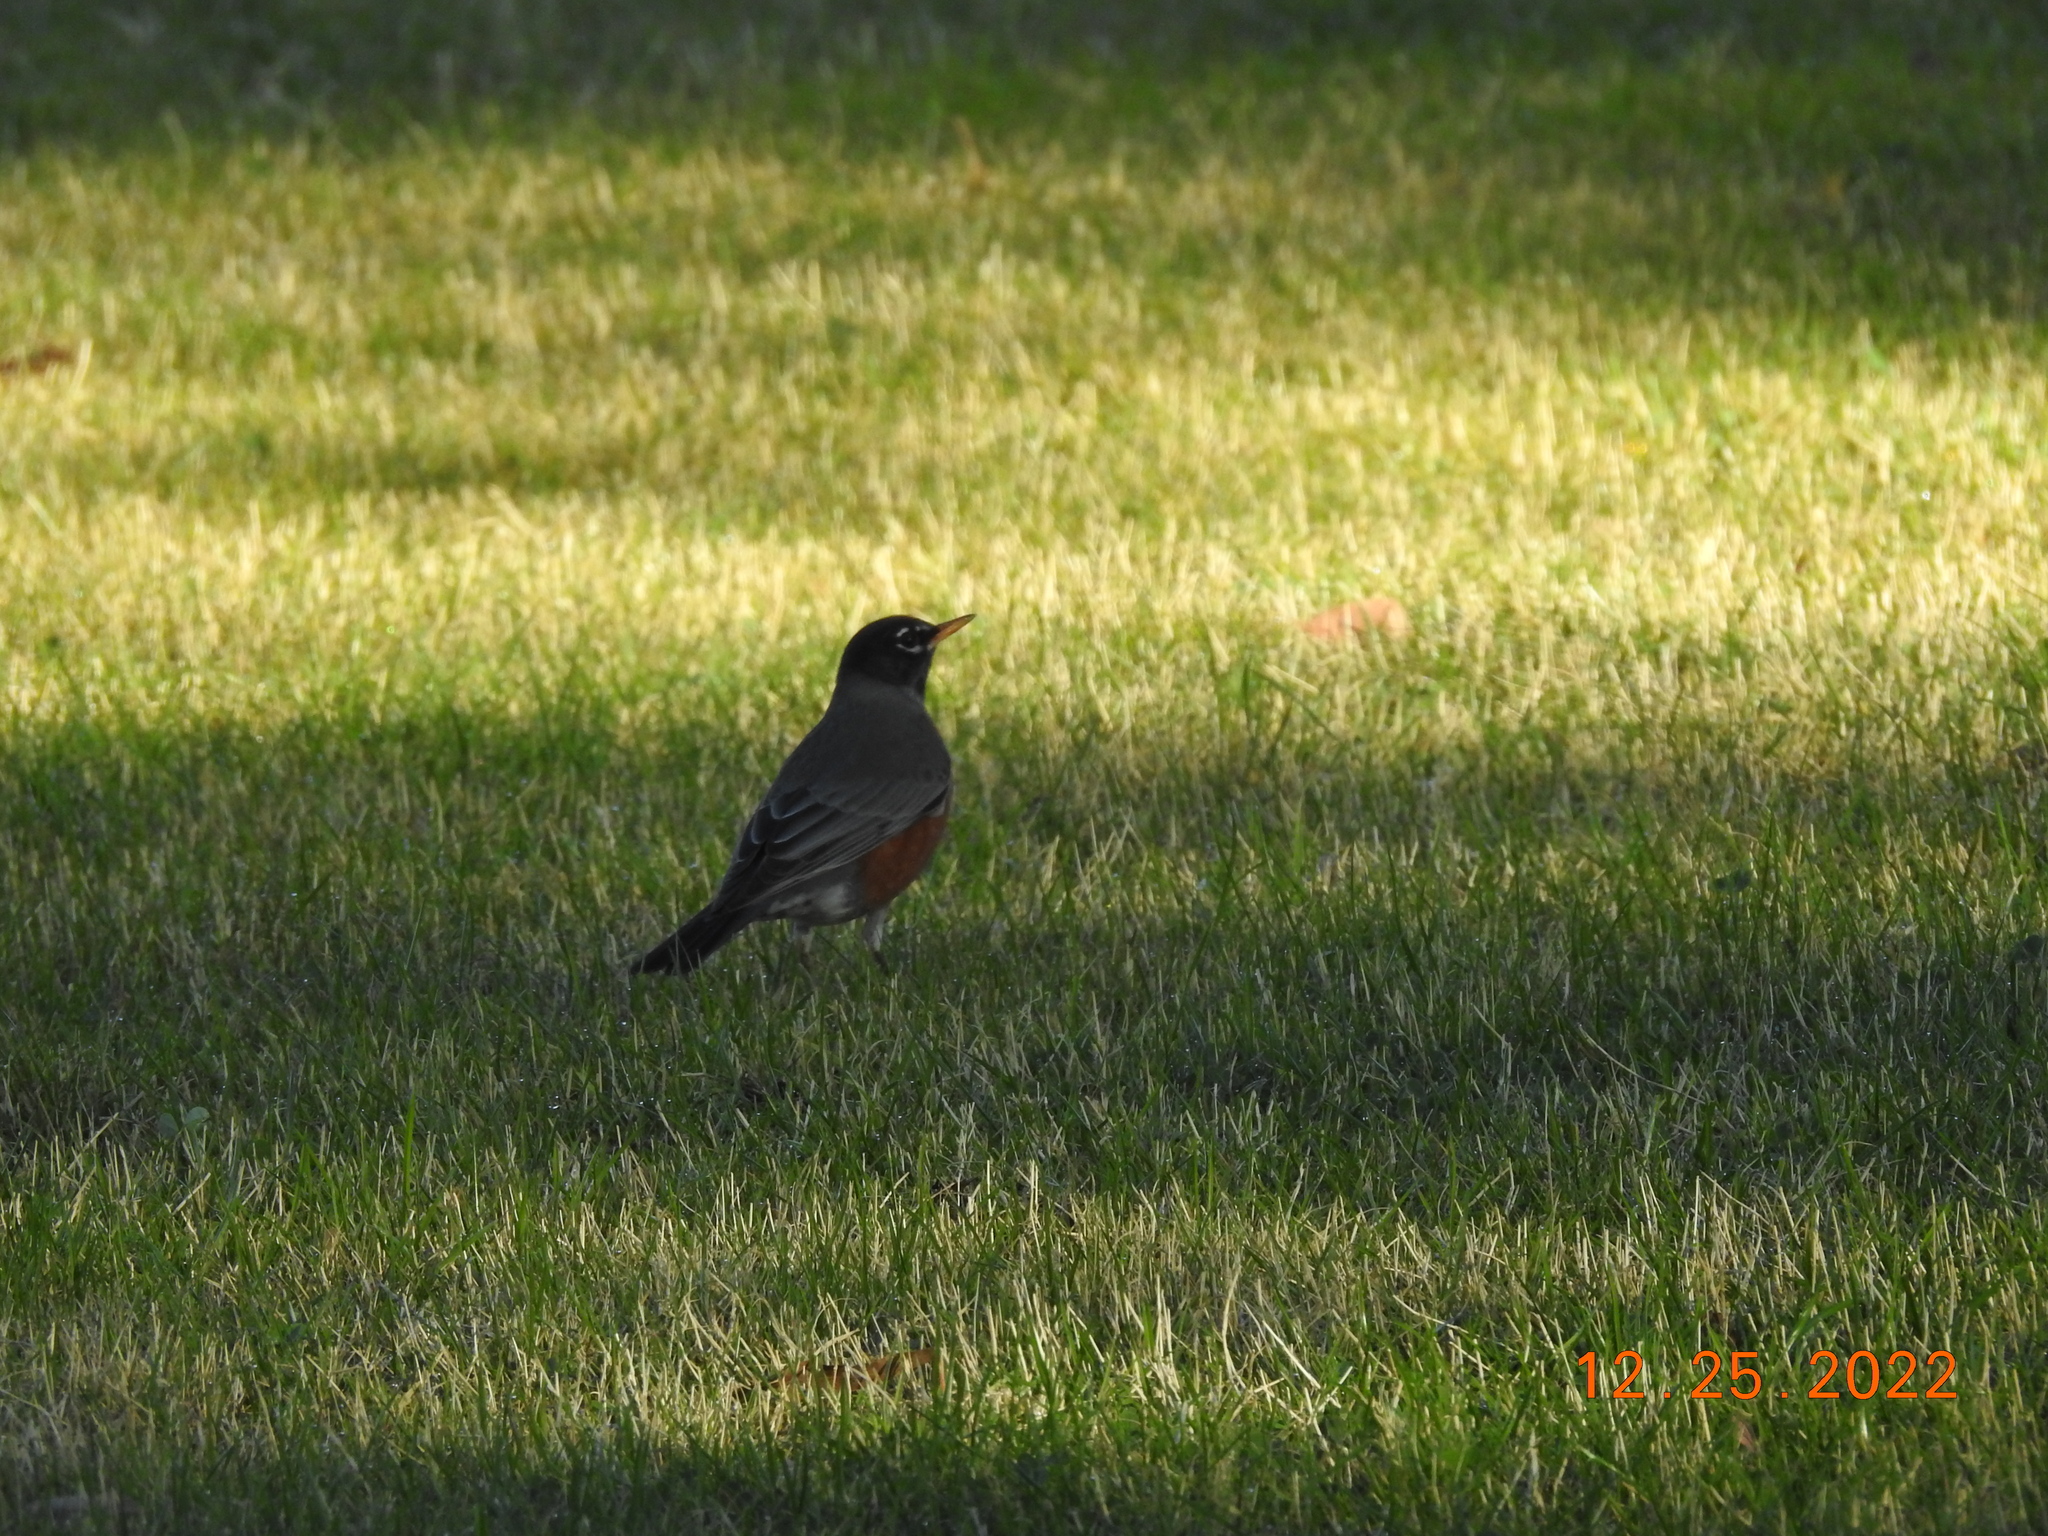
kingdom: Animalia
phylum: Chordata
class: Aves
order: Passeriformes
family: Turdidae
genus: Turdus
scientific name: Turdus migratorius
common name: American robin
